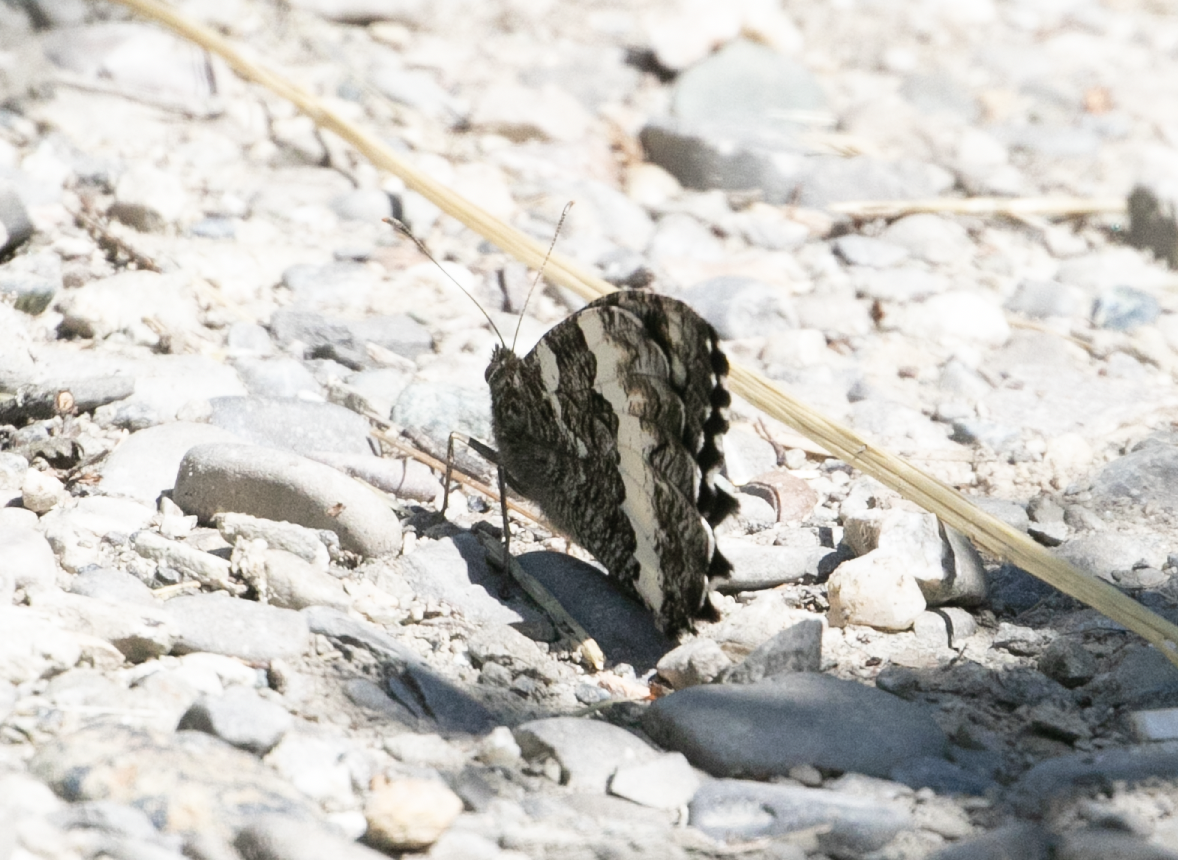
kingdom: Animalia
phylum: Arthropoda
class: Insecta
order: Lepidoptera
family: Lycaenidae
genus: Loweia
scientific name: Loweia tityrus
